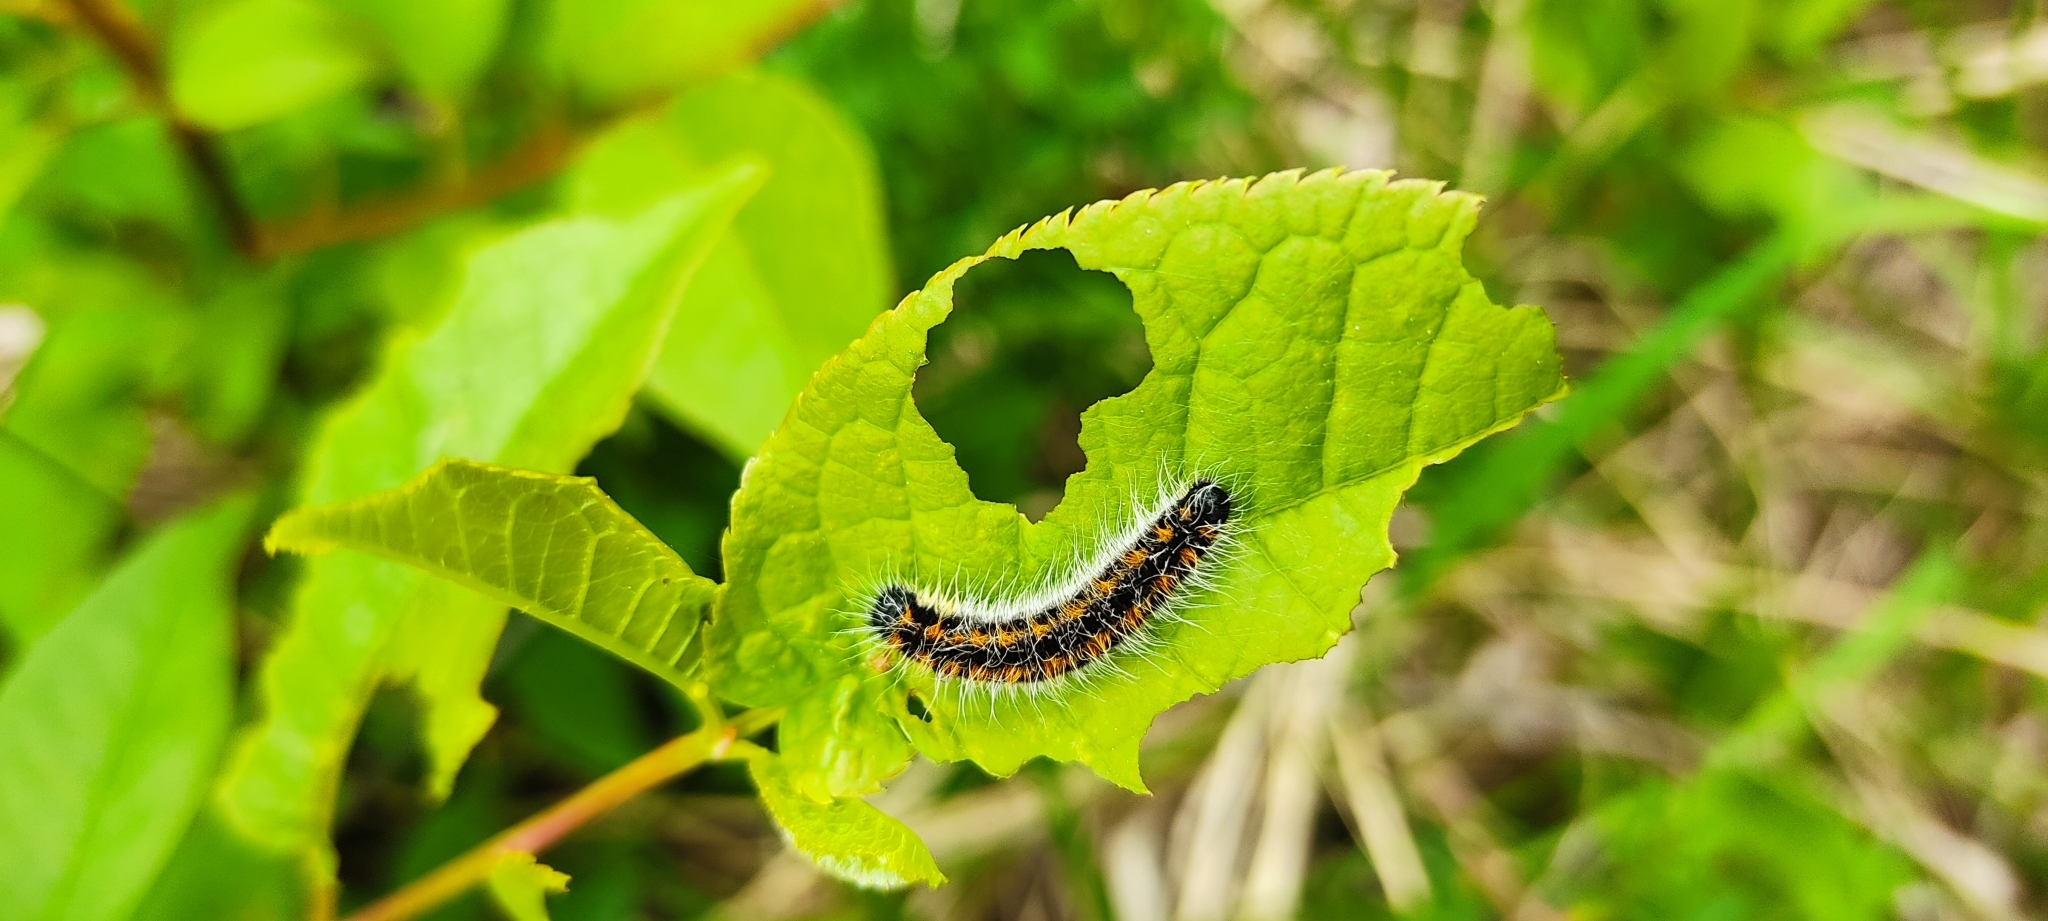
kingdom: Animalia
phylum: Arthropoda
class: Insecta
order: Lepidoptera
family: Pieridae
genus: Aporia
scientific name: Aporia crataegi
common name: Black-veined white
